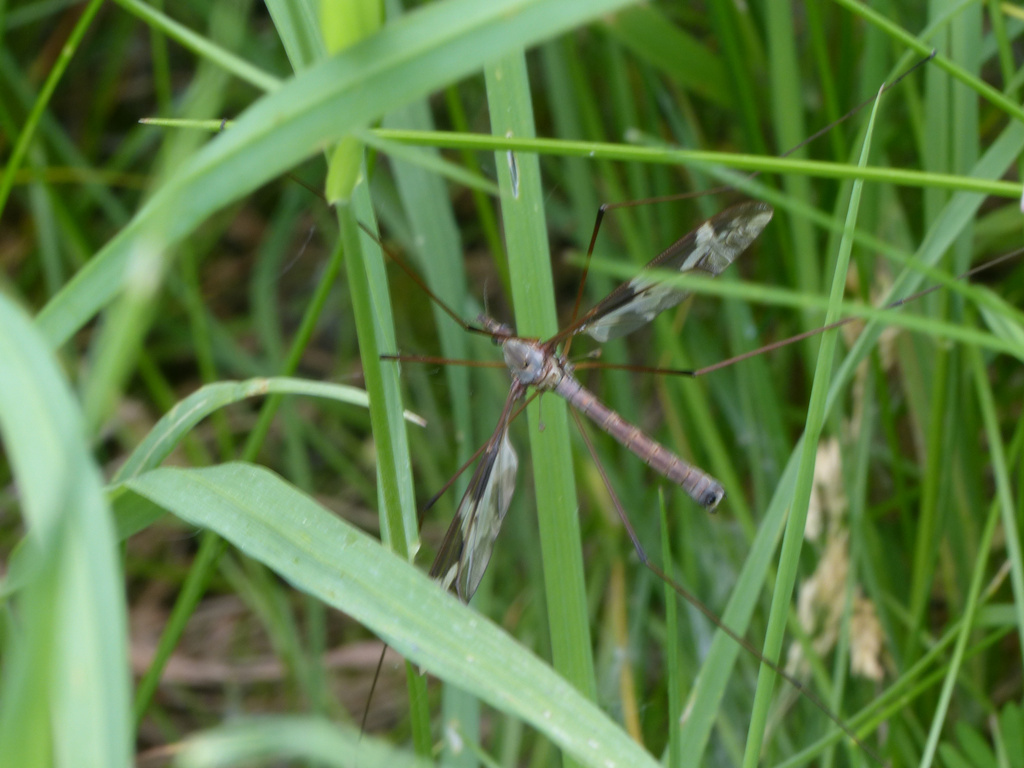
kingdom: Animalia
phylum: Arthropoda
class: Insecta
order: Diptera
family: Tipulidae
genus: Tipula
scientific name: Tipula maxima
